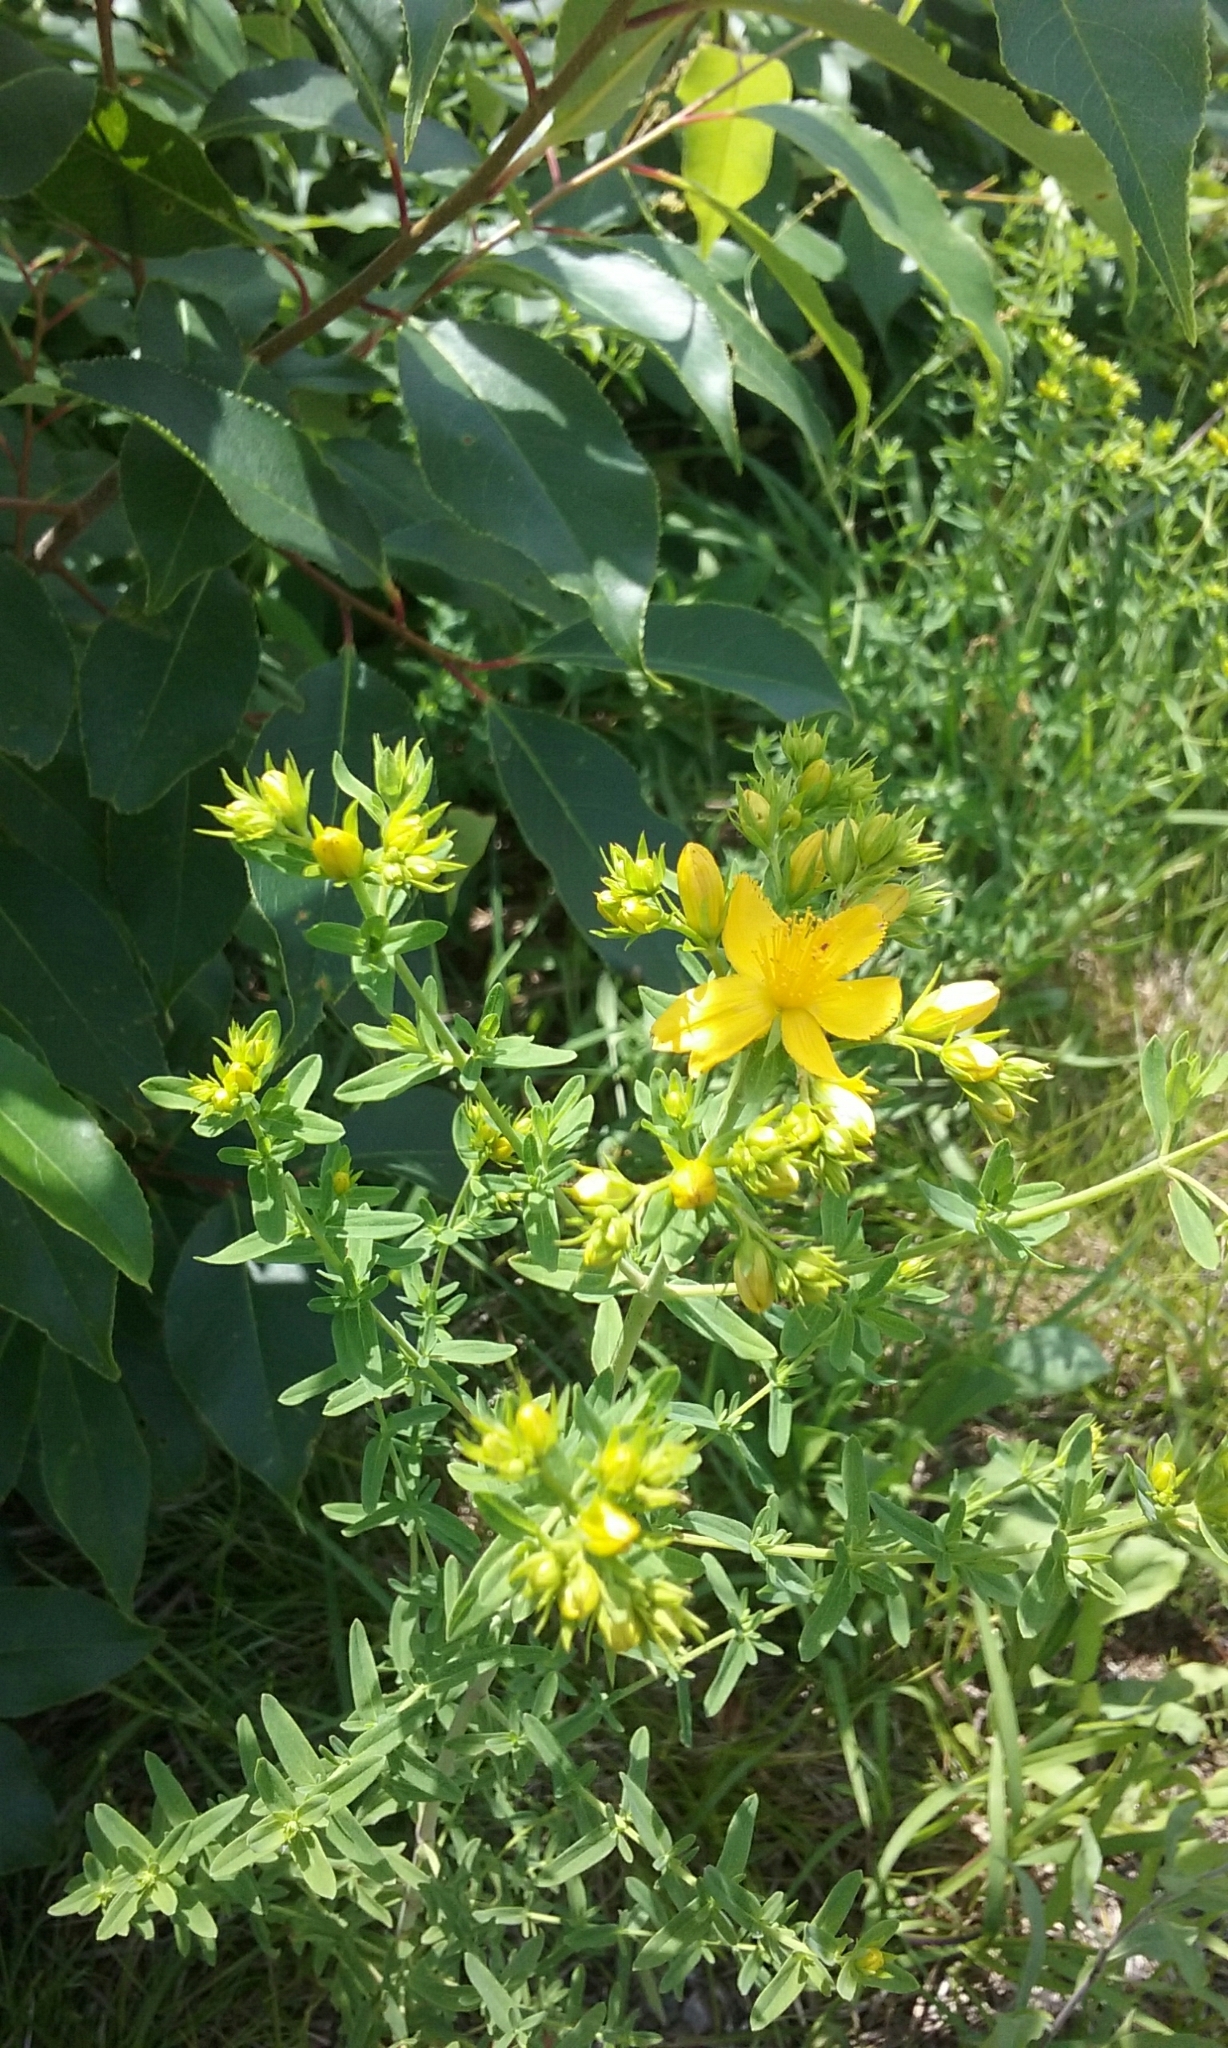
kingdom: Plantae
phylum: Tracheophyta
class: Magnoliopsida
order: Malpighiales
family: Hypericaceae
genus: Hypericum
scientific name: Hypericum perforatum
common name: Common st. johnswort
